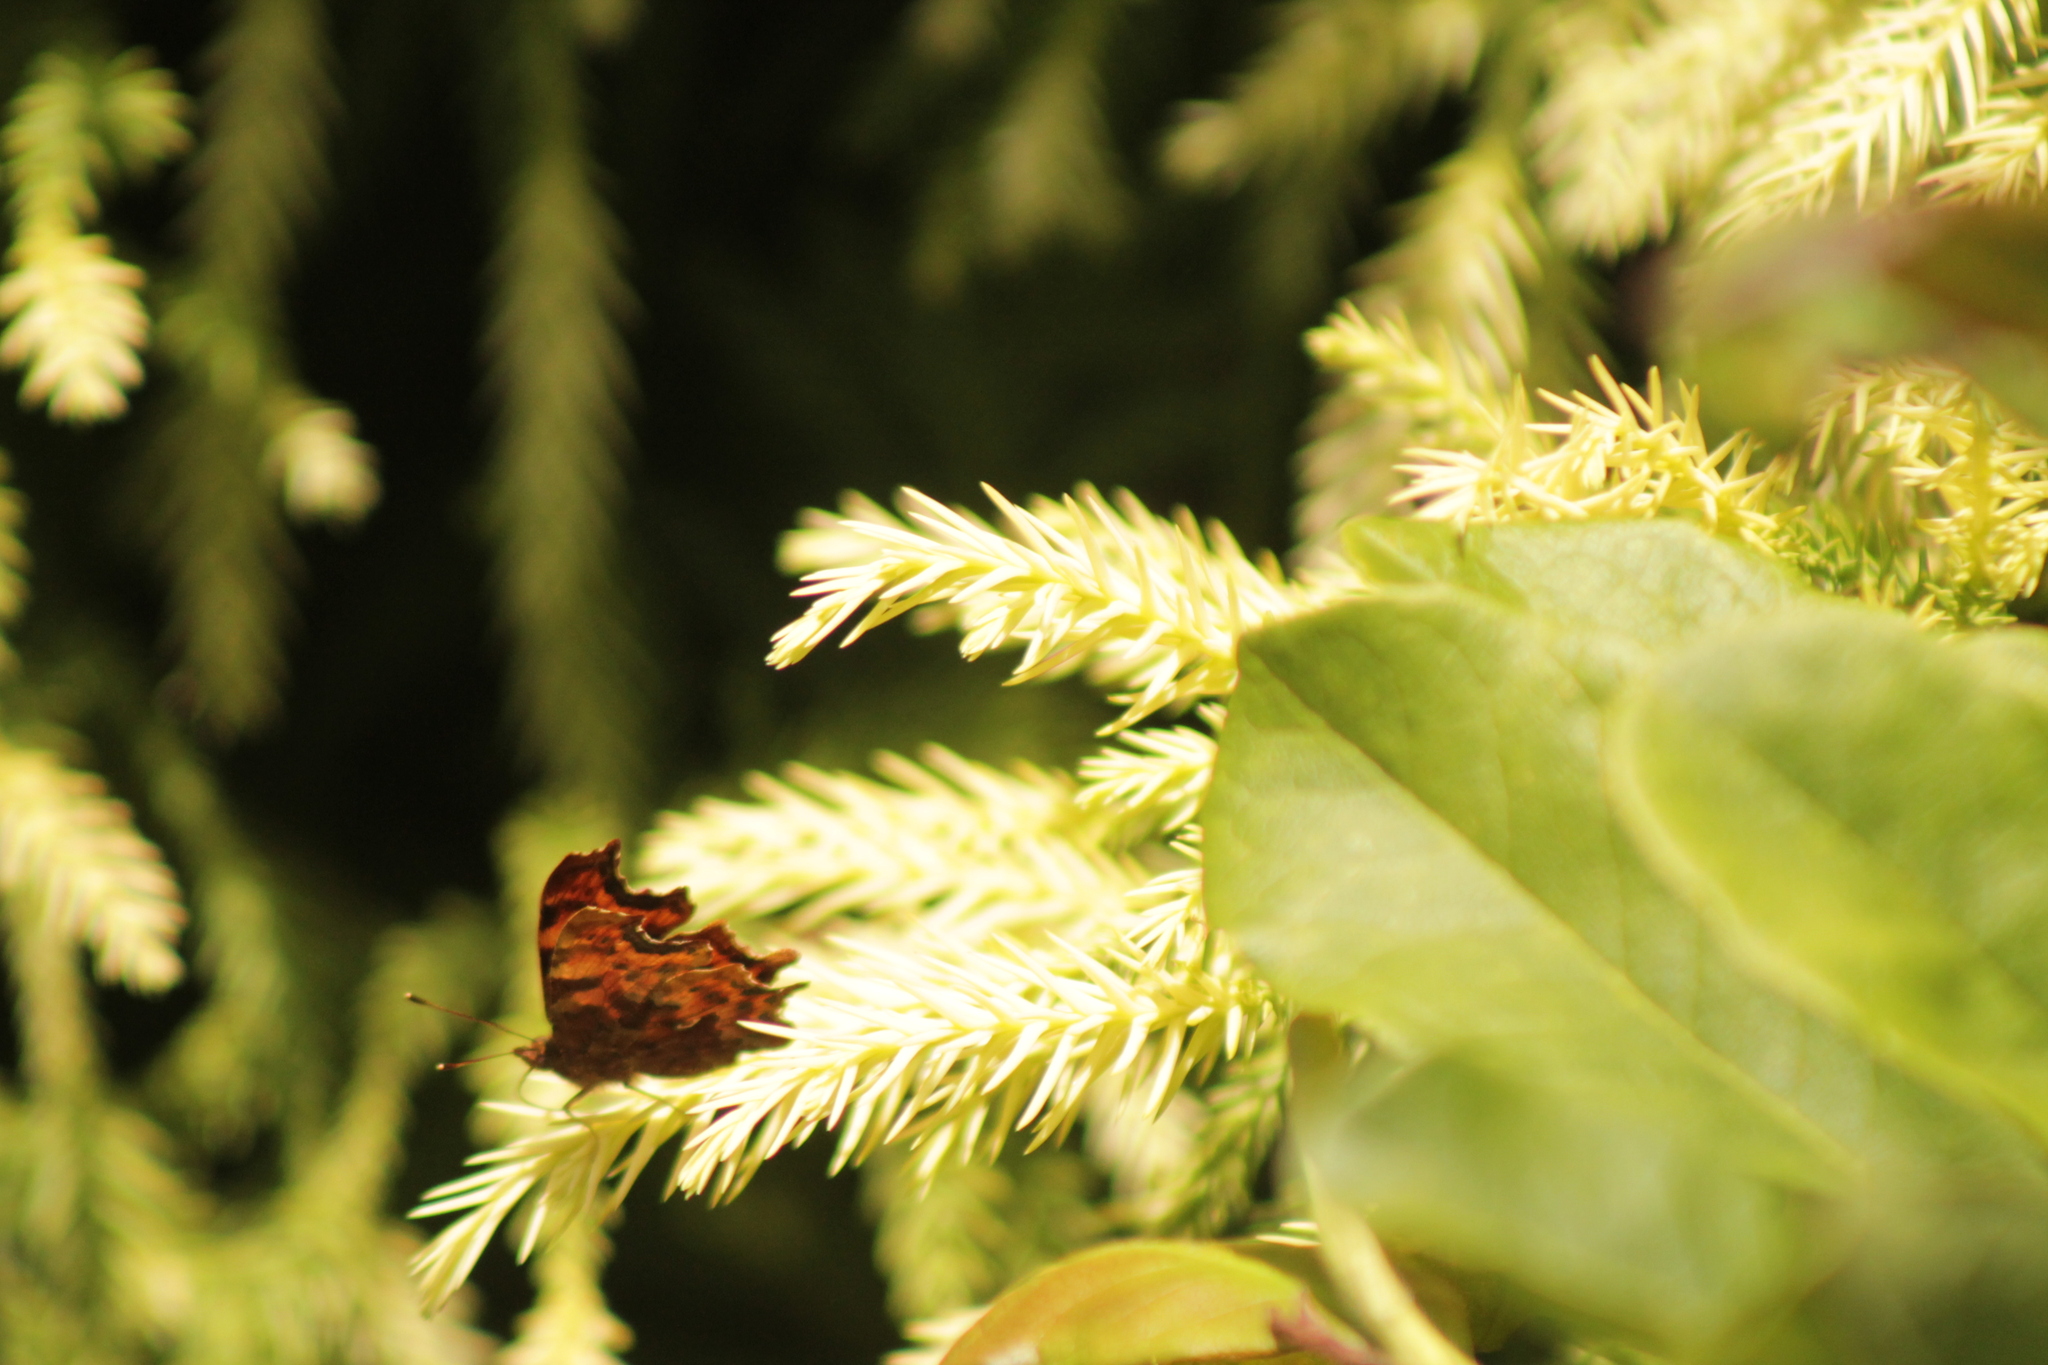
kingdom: Animalia
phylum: Arthropoda
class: Insecta
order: Lepidoptera
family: Nymphalidae
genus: Polygonia
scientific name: Polygonia c-album
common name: Comma
